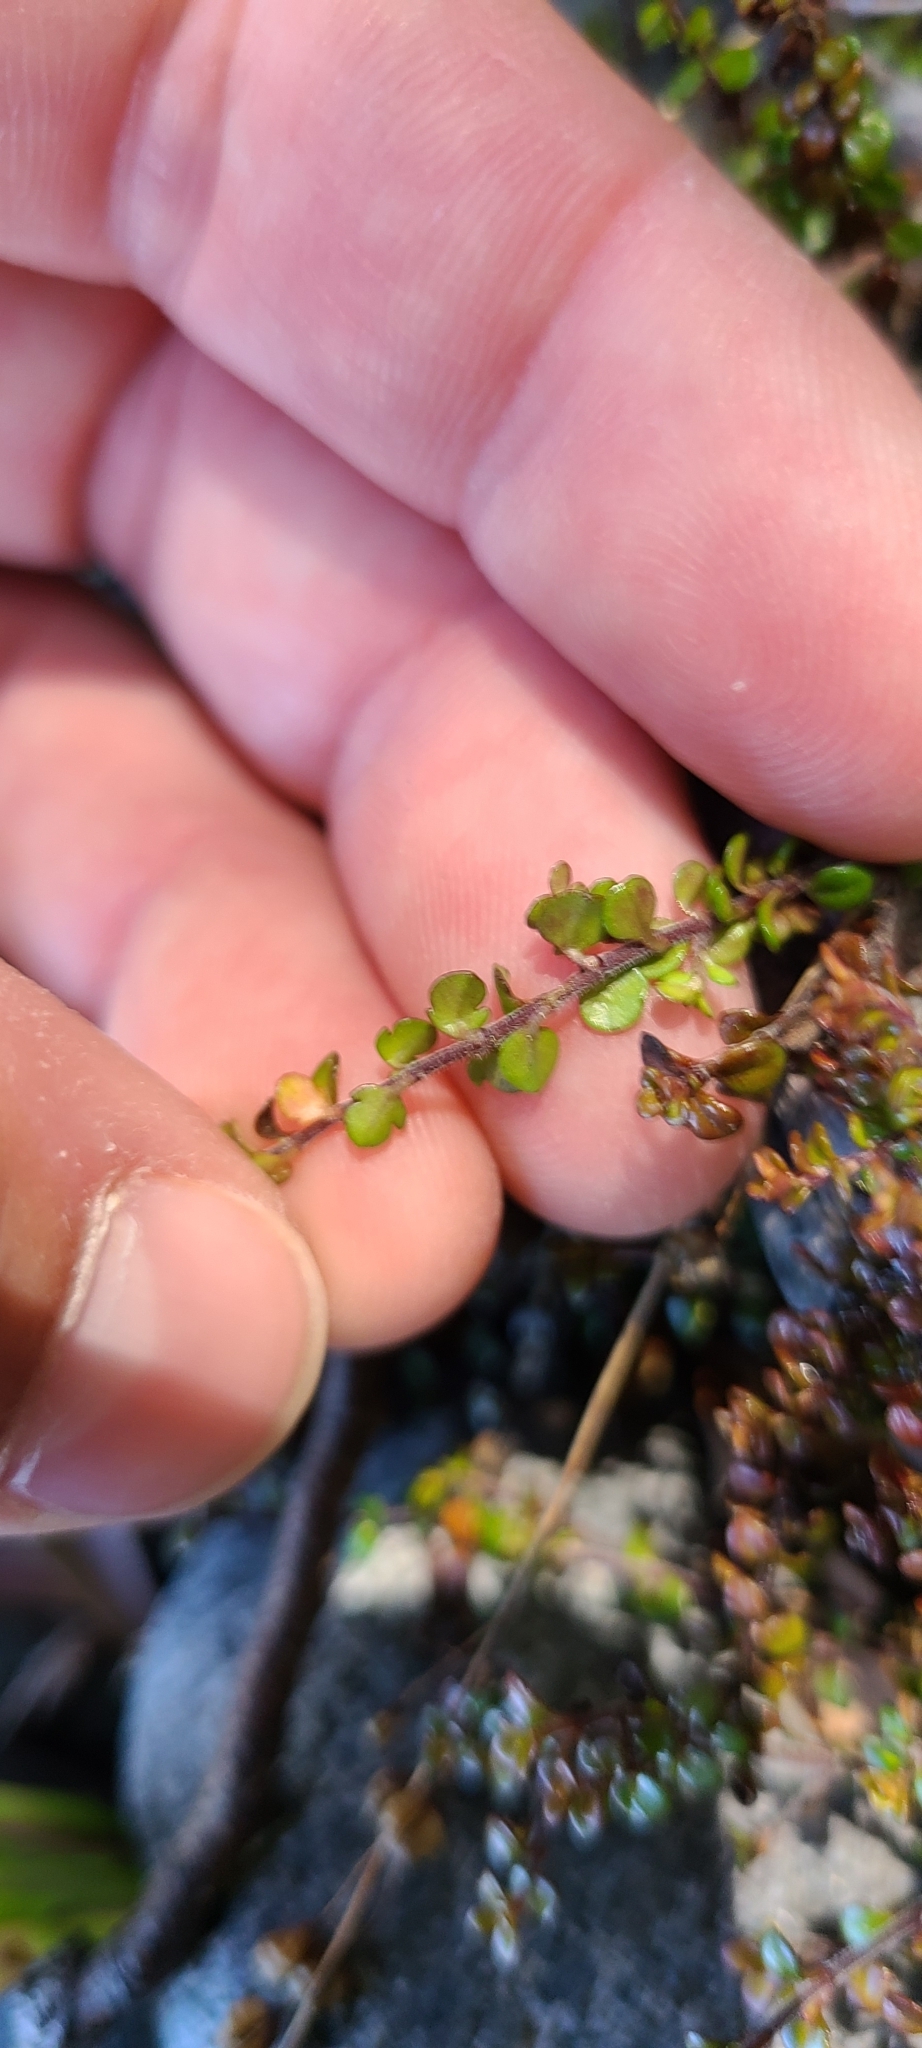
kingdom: Plantae
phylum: Tracheophyta
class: Magnoliopsida
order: Lamiales
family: Plantaginaceae
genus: Veronica
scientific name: Veronica decora
